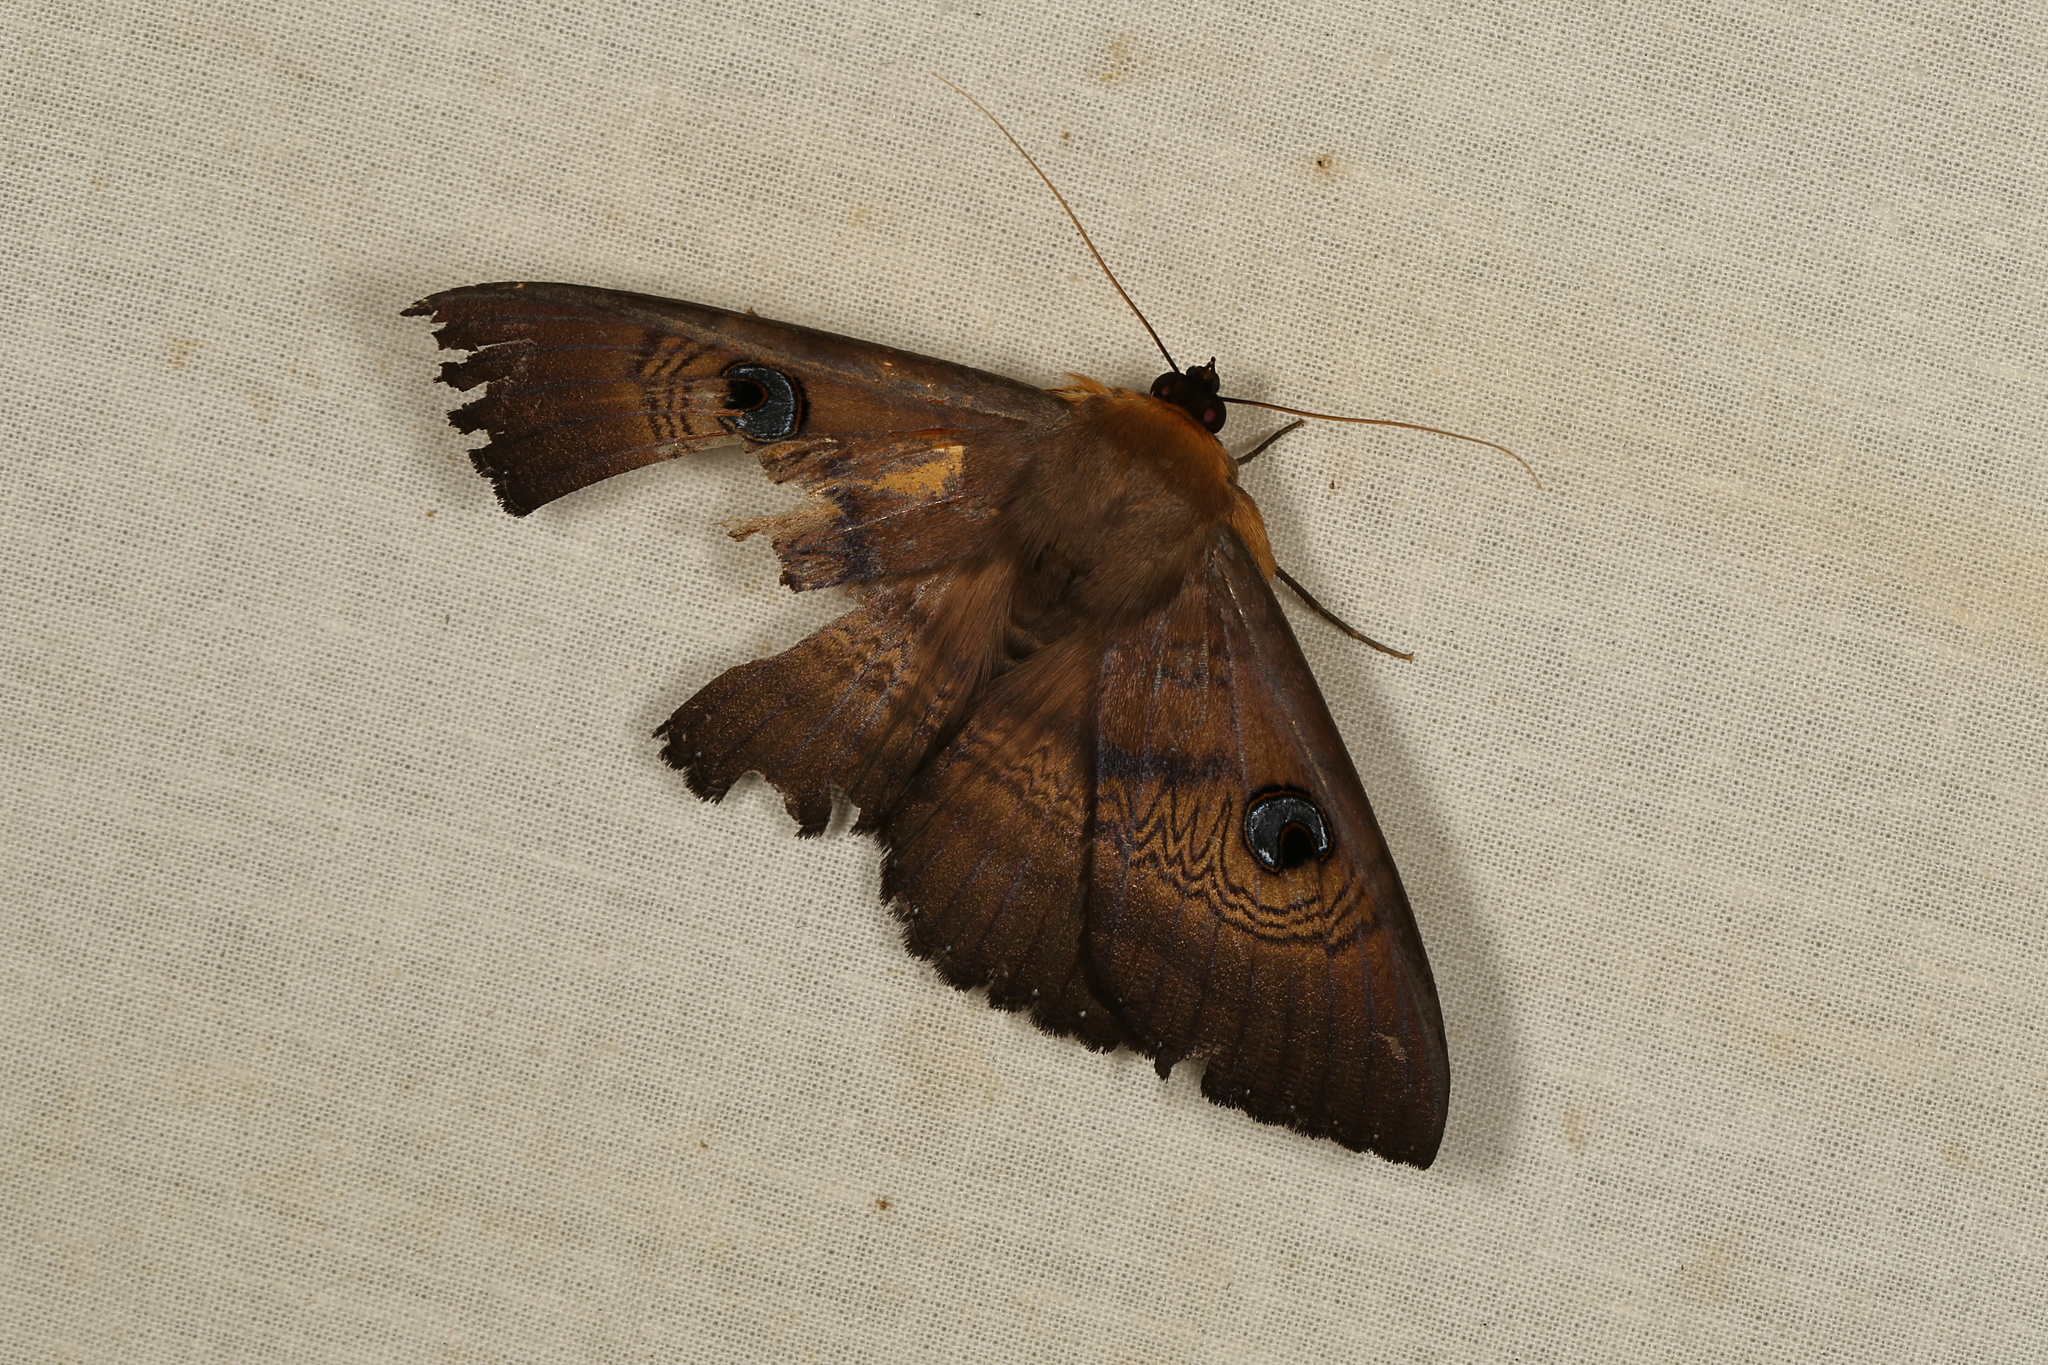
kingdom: Animalia
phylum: Arthropoda
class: Insecta
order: Lepidoptera
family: Erebidae
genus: Dasypodia
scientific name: Dasypodia selenophora
